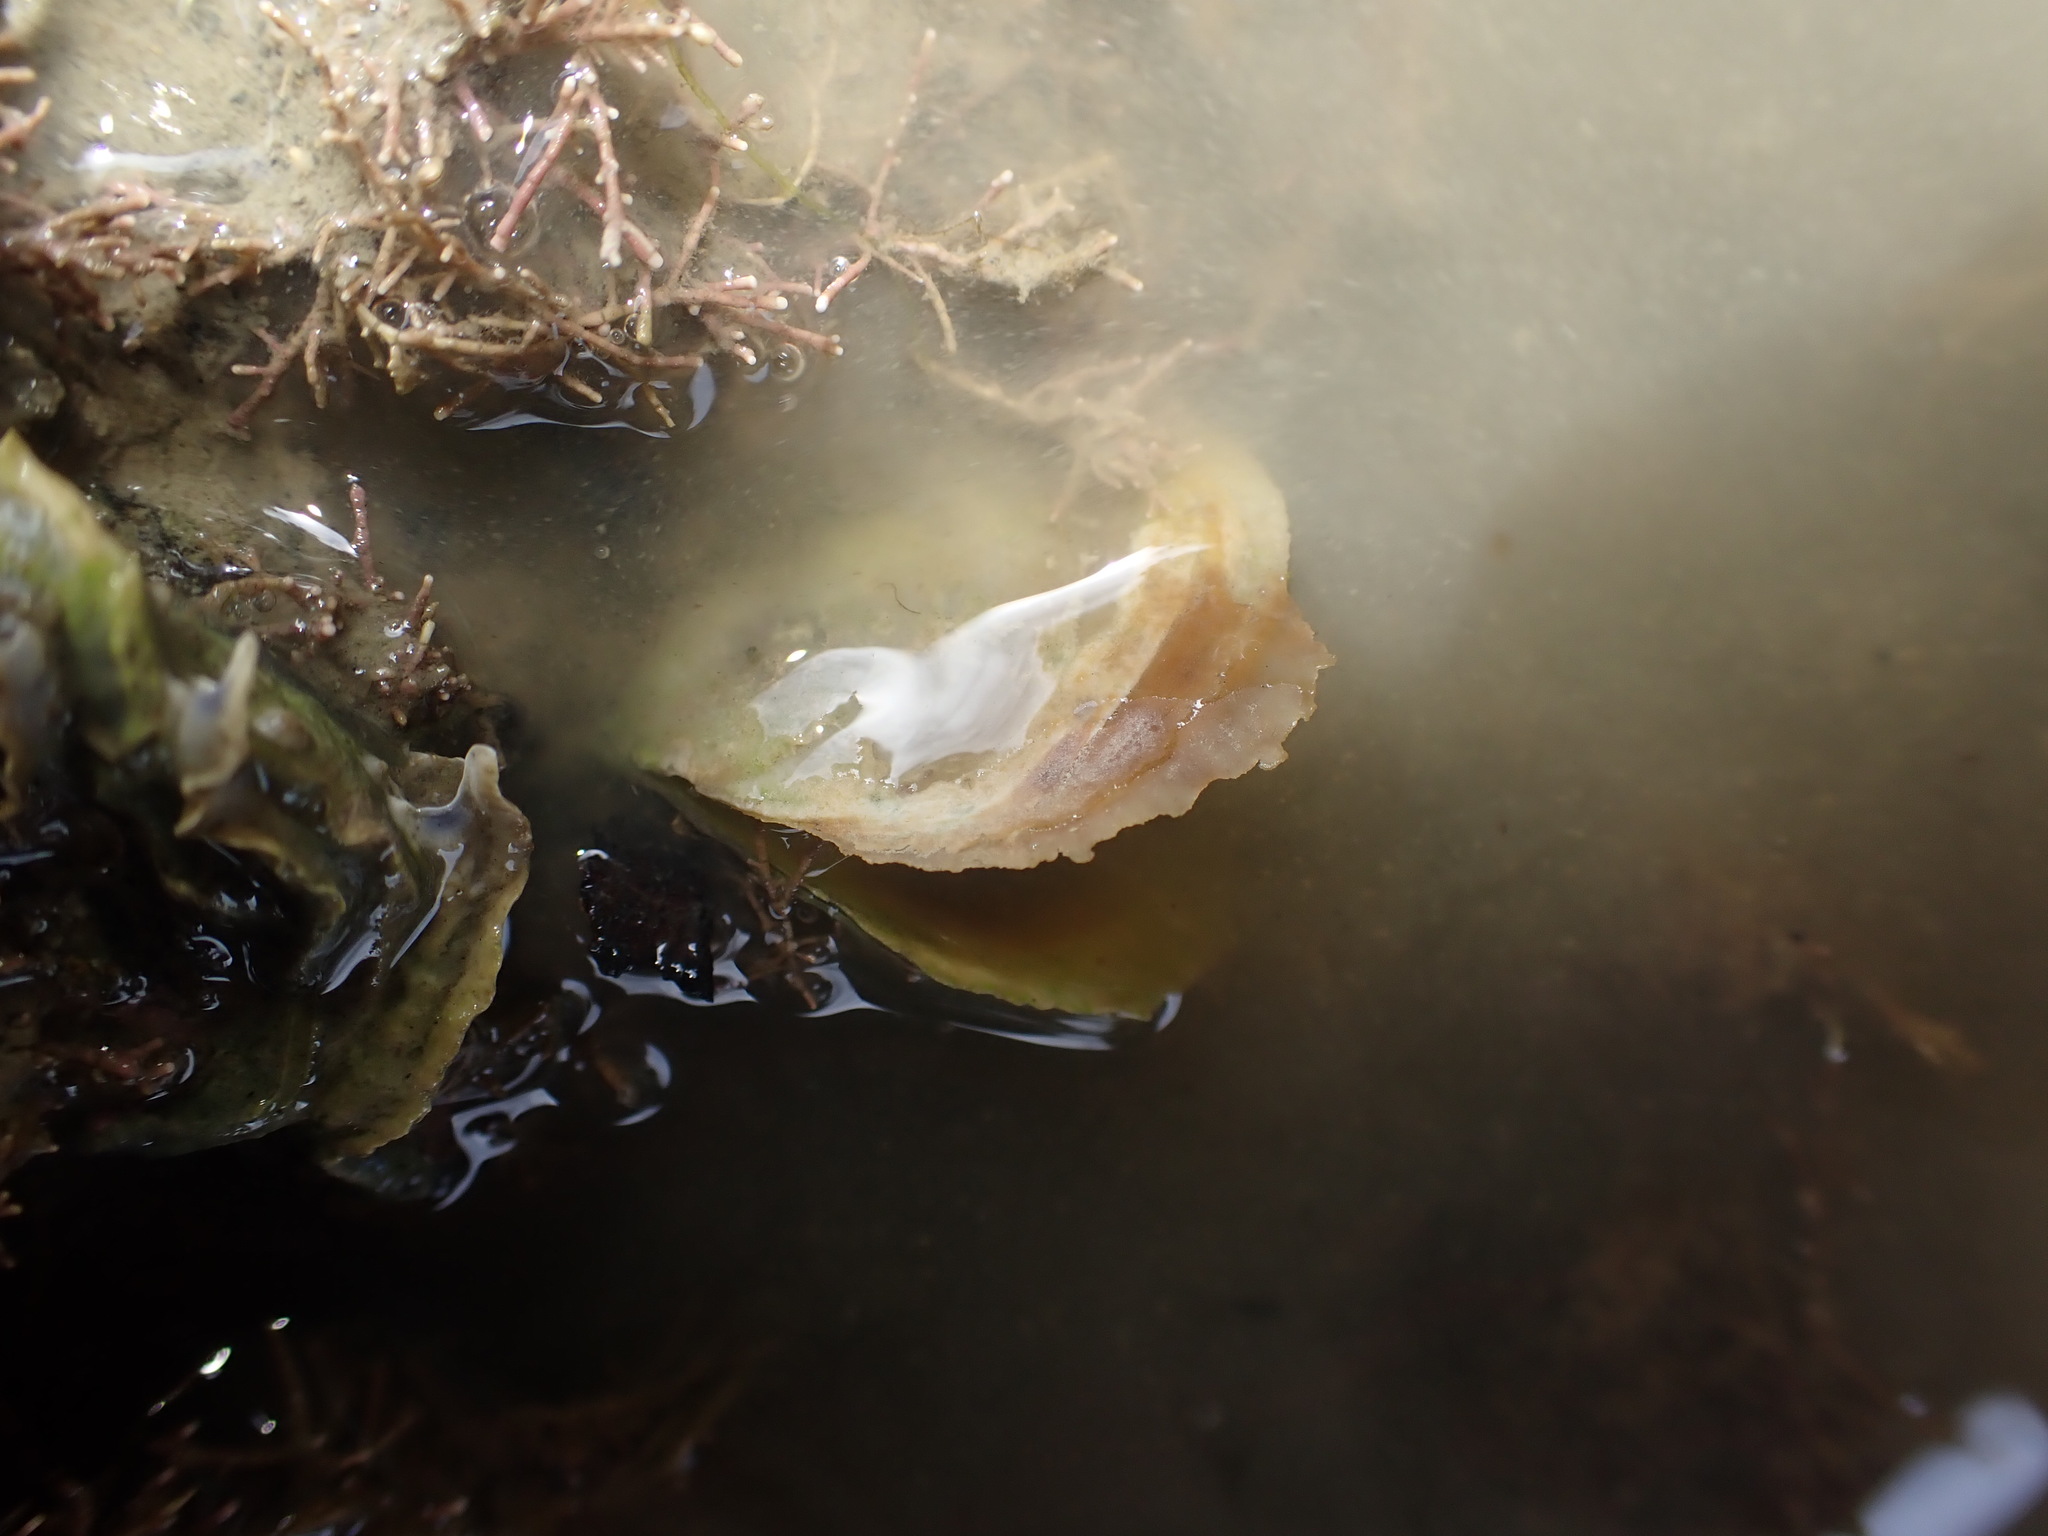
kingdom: Animalia
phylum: Mollusca
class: Bivalvia
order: Ostreida
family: Ostreidae
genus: Ostrea
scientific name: Ostrea chilensis
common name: Chilean oyster
